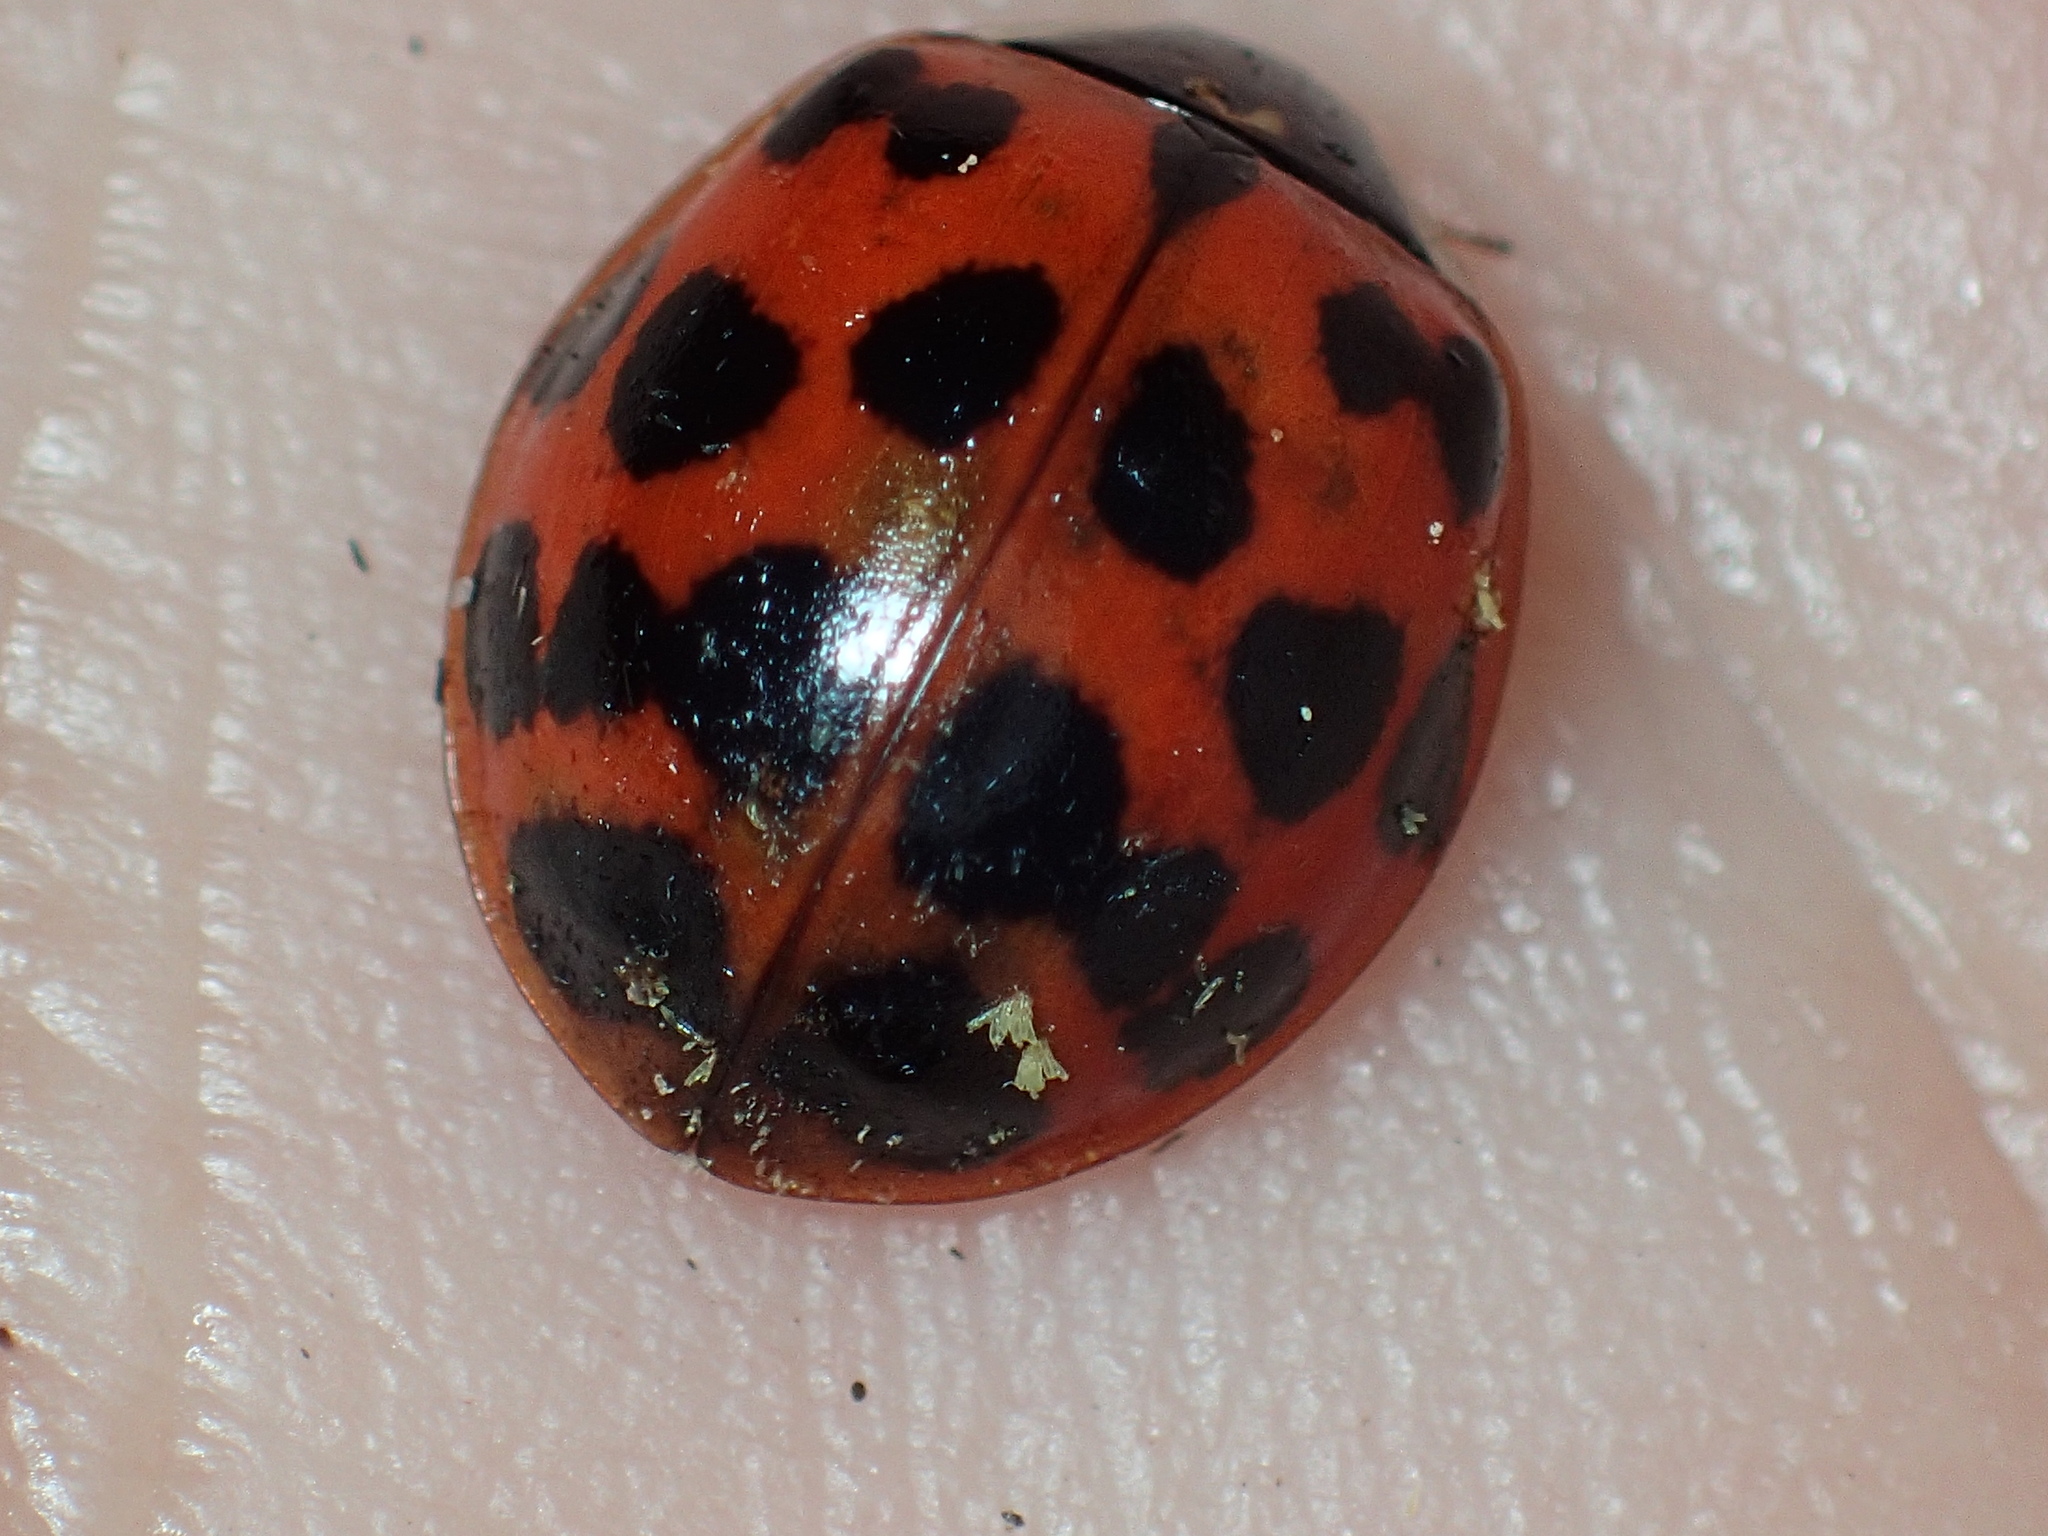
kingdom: Animalia
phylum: Arthropoda
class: Insecta
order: Coleoptera
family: Coccinellidae
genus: Harmonia
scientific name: Harmonia axyridis
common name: Harlequin ladybird
